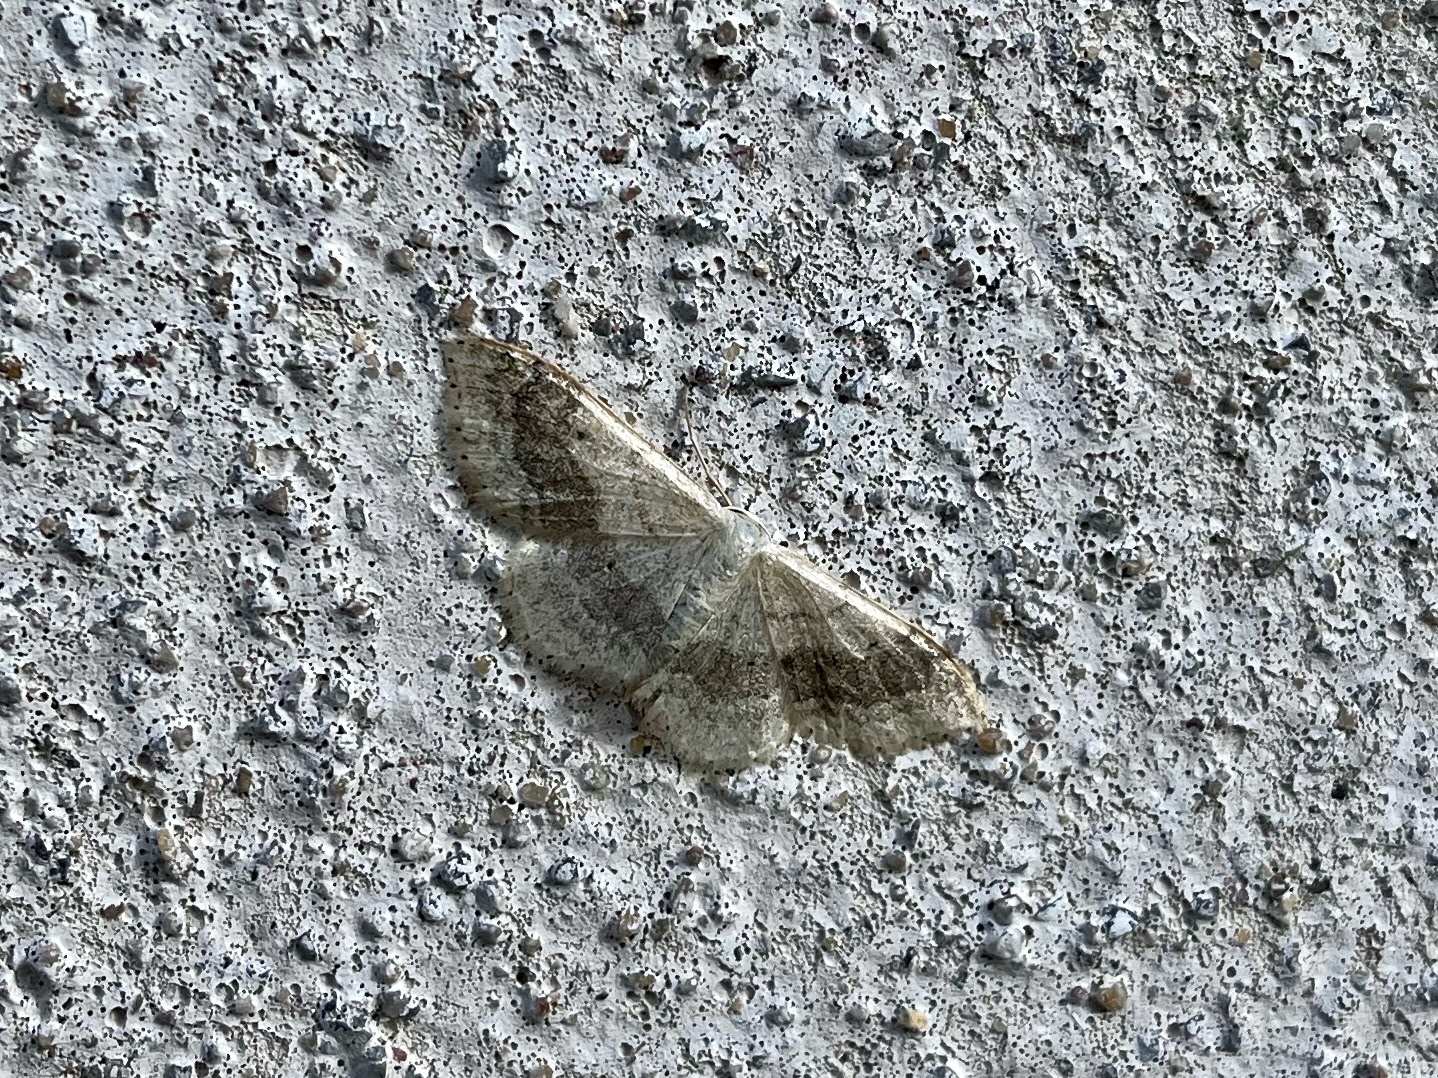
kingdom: Animalia
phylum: Arthropoda
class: Insecta
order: Lepidoptera
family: Geometridae
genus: Idaea
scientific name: Idaea aversata
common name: Riband wave
